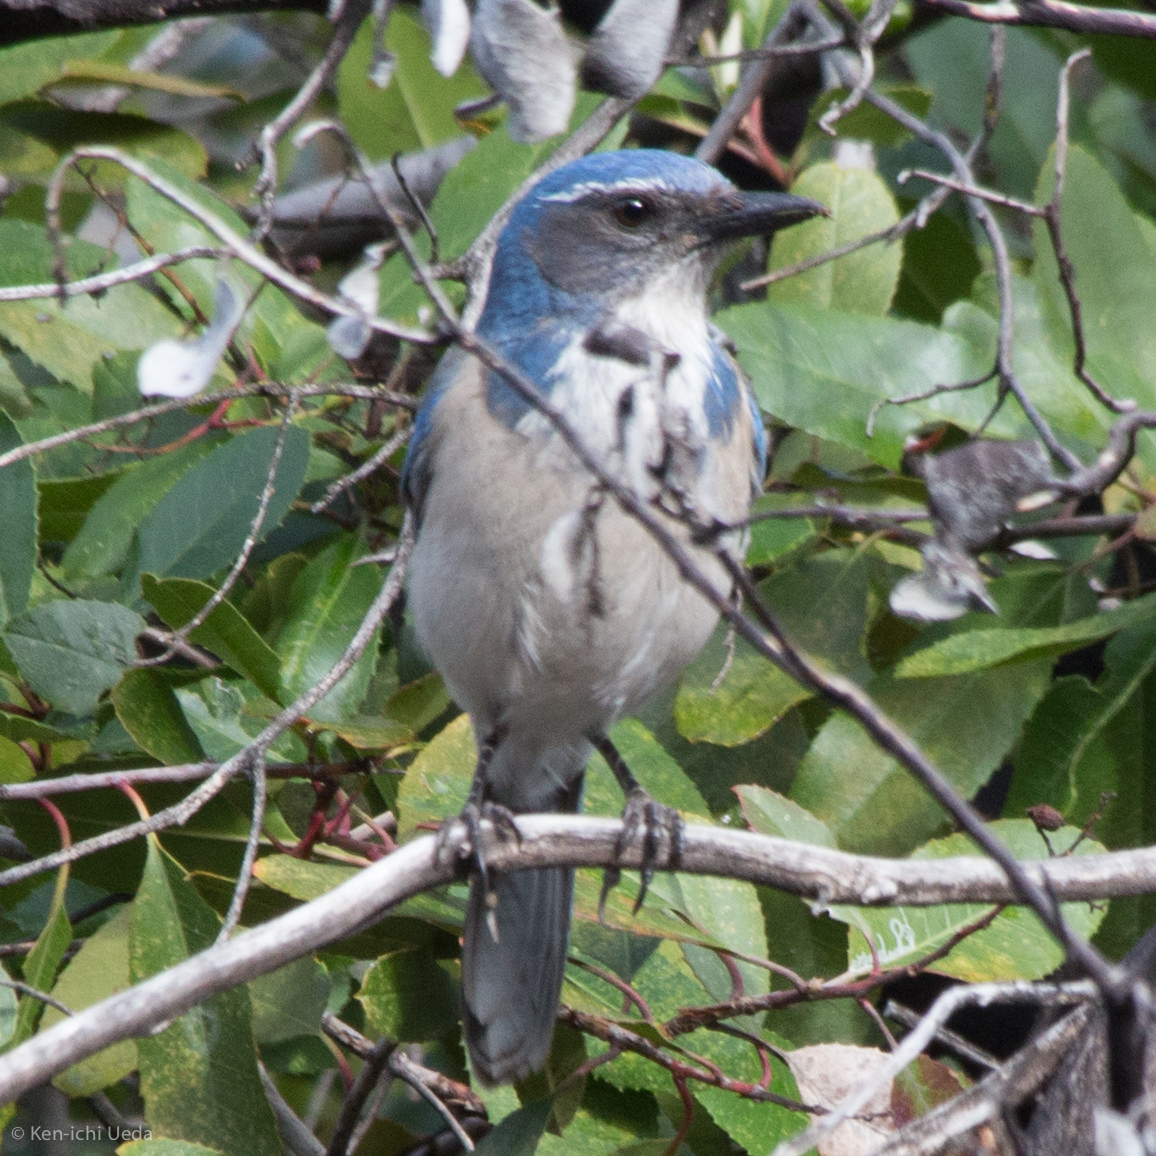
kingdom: Animalia
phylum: Chordata
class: Aves
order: Passeriformes
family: Corvidae
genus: Aphelocoma
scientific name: Aphelocoma californica
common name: California scrub-jay
